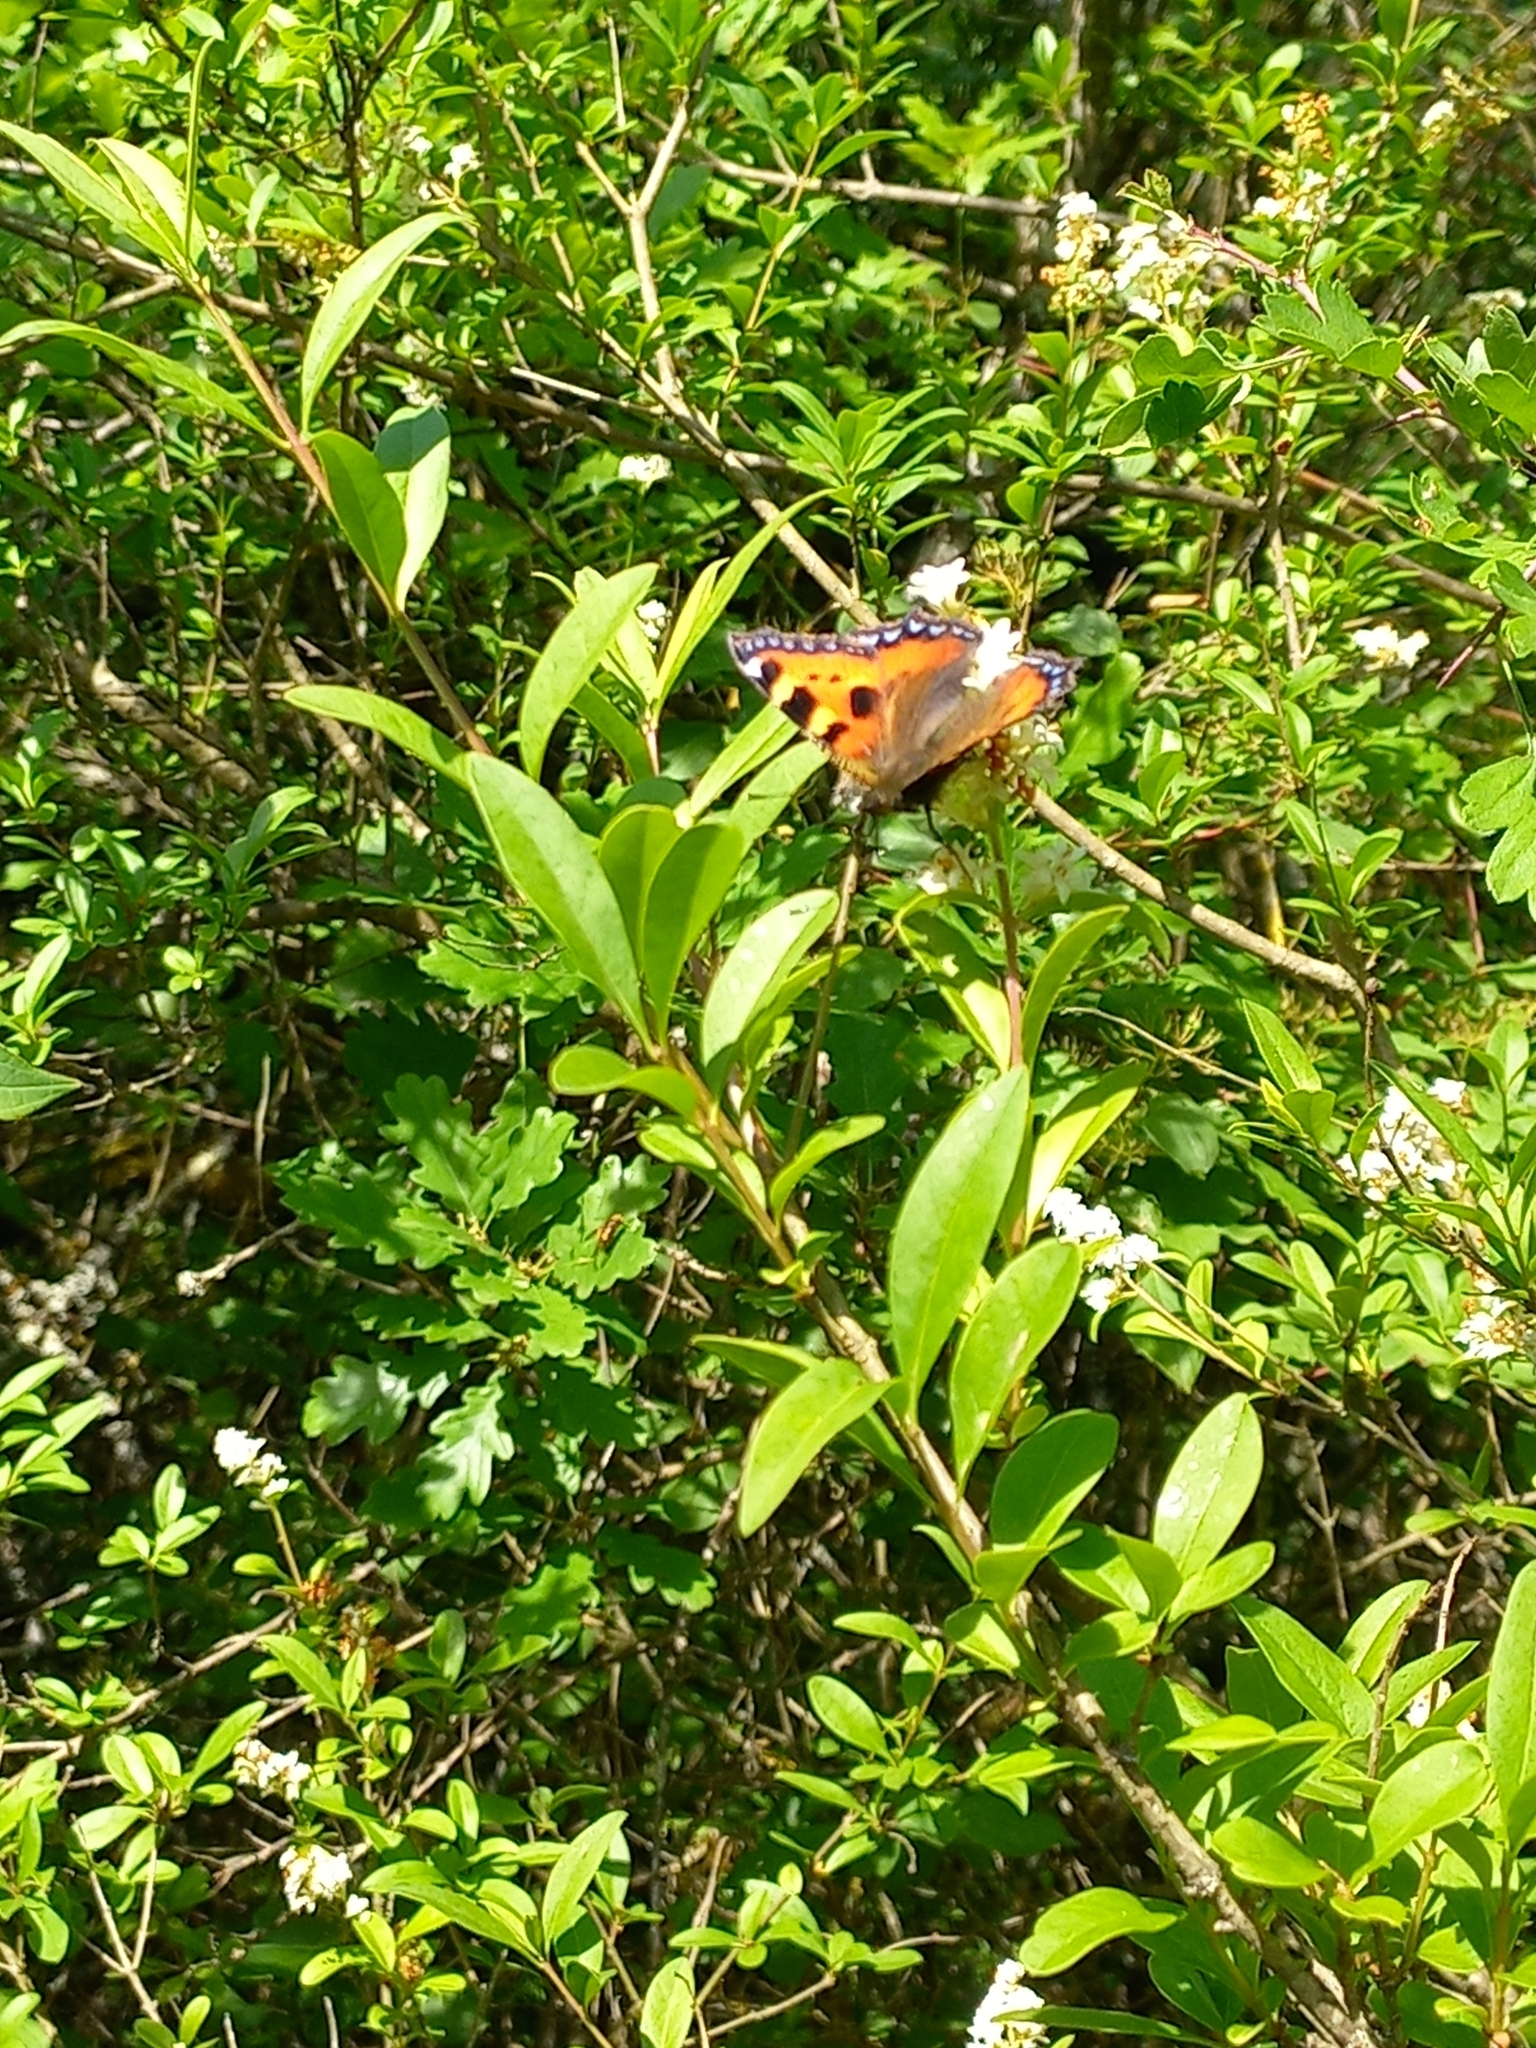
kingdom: Animalia
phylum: Arthropoda
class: Insecta
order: Lepidoptera
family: Nymphalidae
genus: Aglais
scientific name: Aglais urticae
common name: Small tortoiseshell
